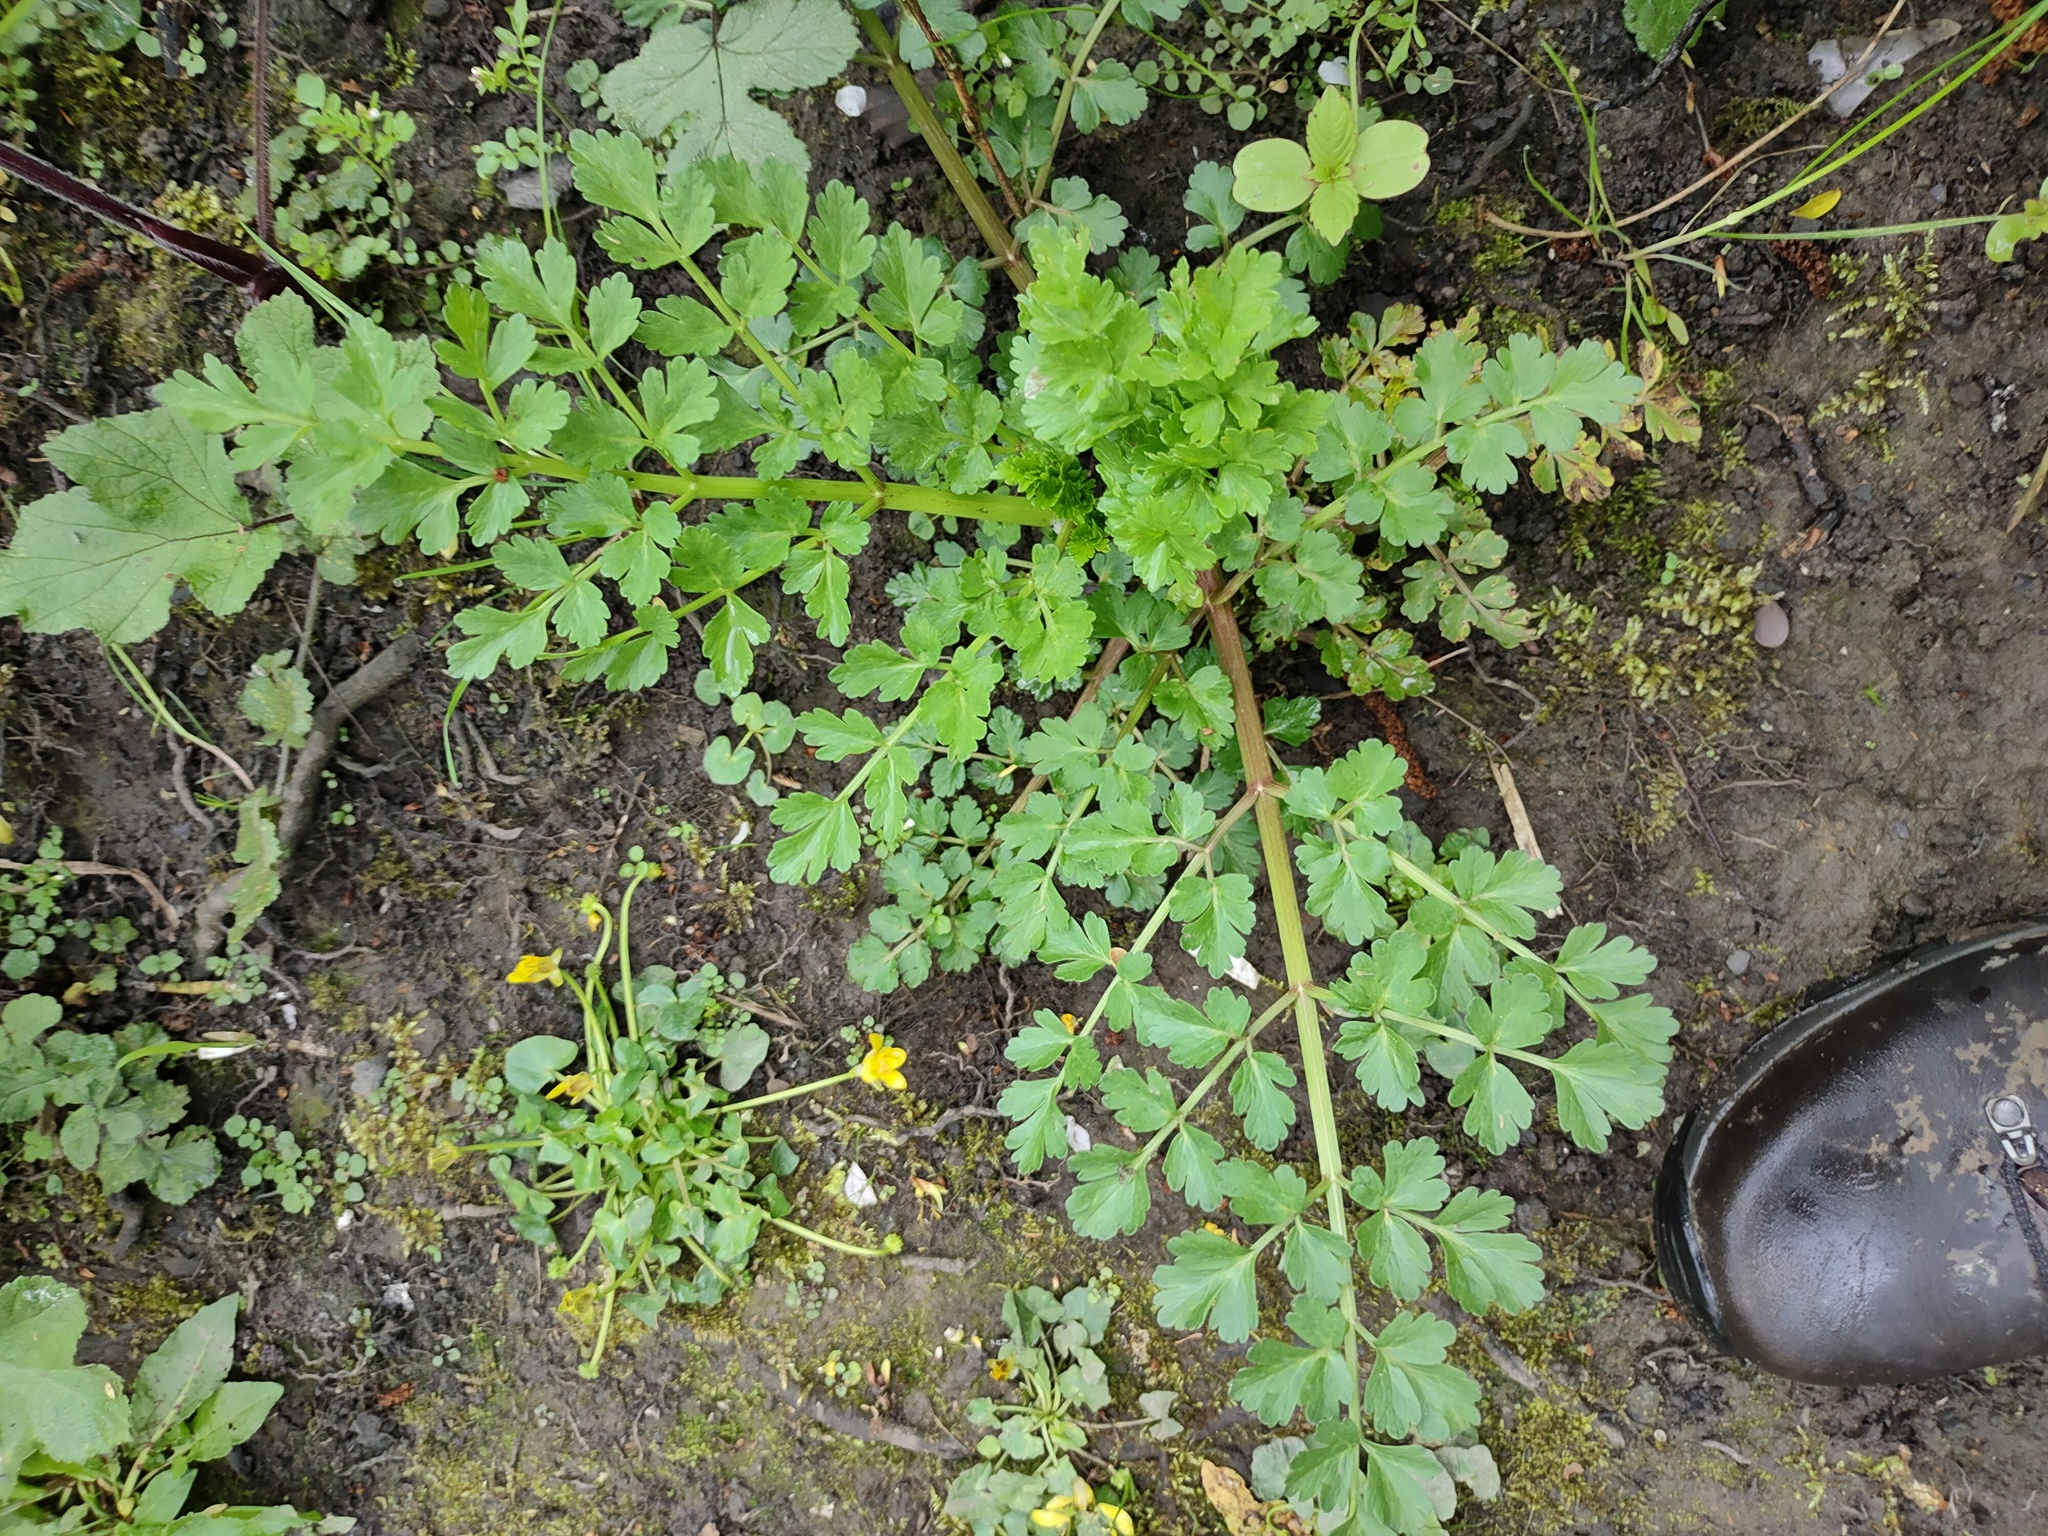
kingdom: Plantae
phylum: Tracheophyta
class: Magnoliopsida
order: Apiales
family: Apiaceae
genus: Oenanthe
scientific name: Oenanthe crocata
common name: Hemlock water-dropwort
